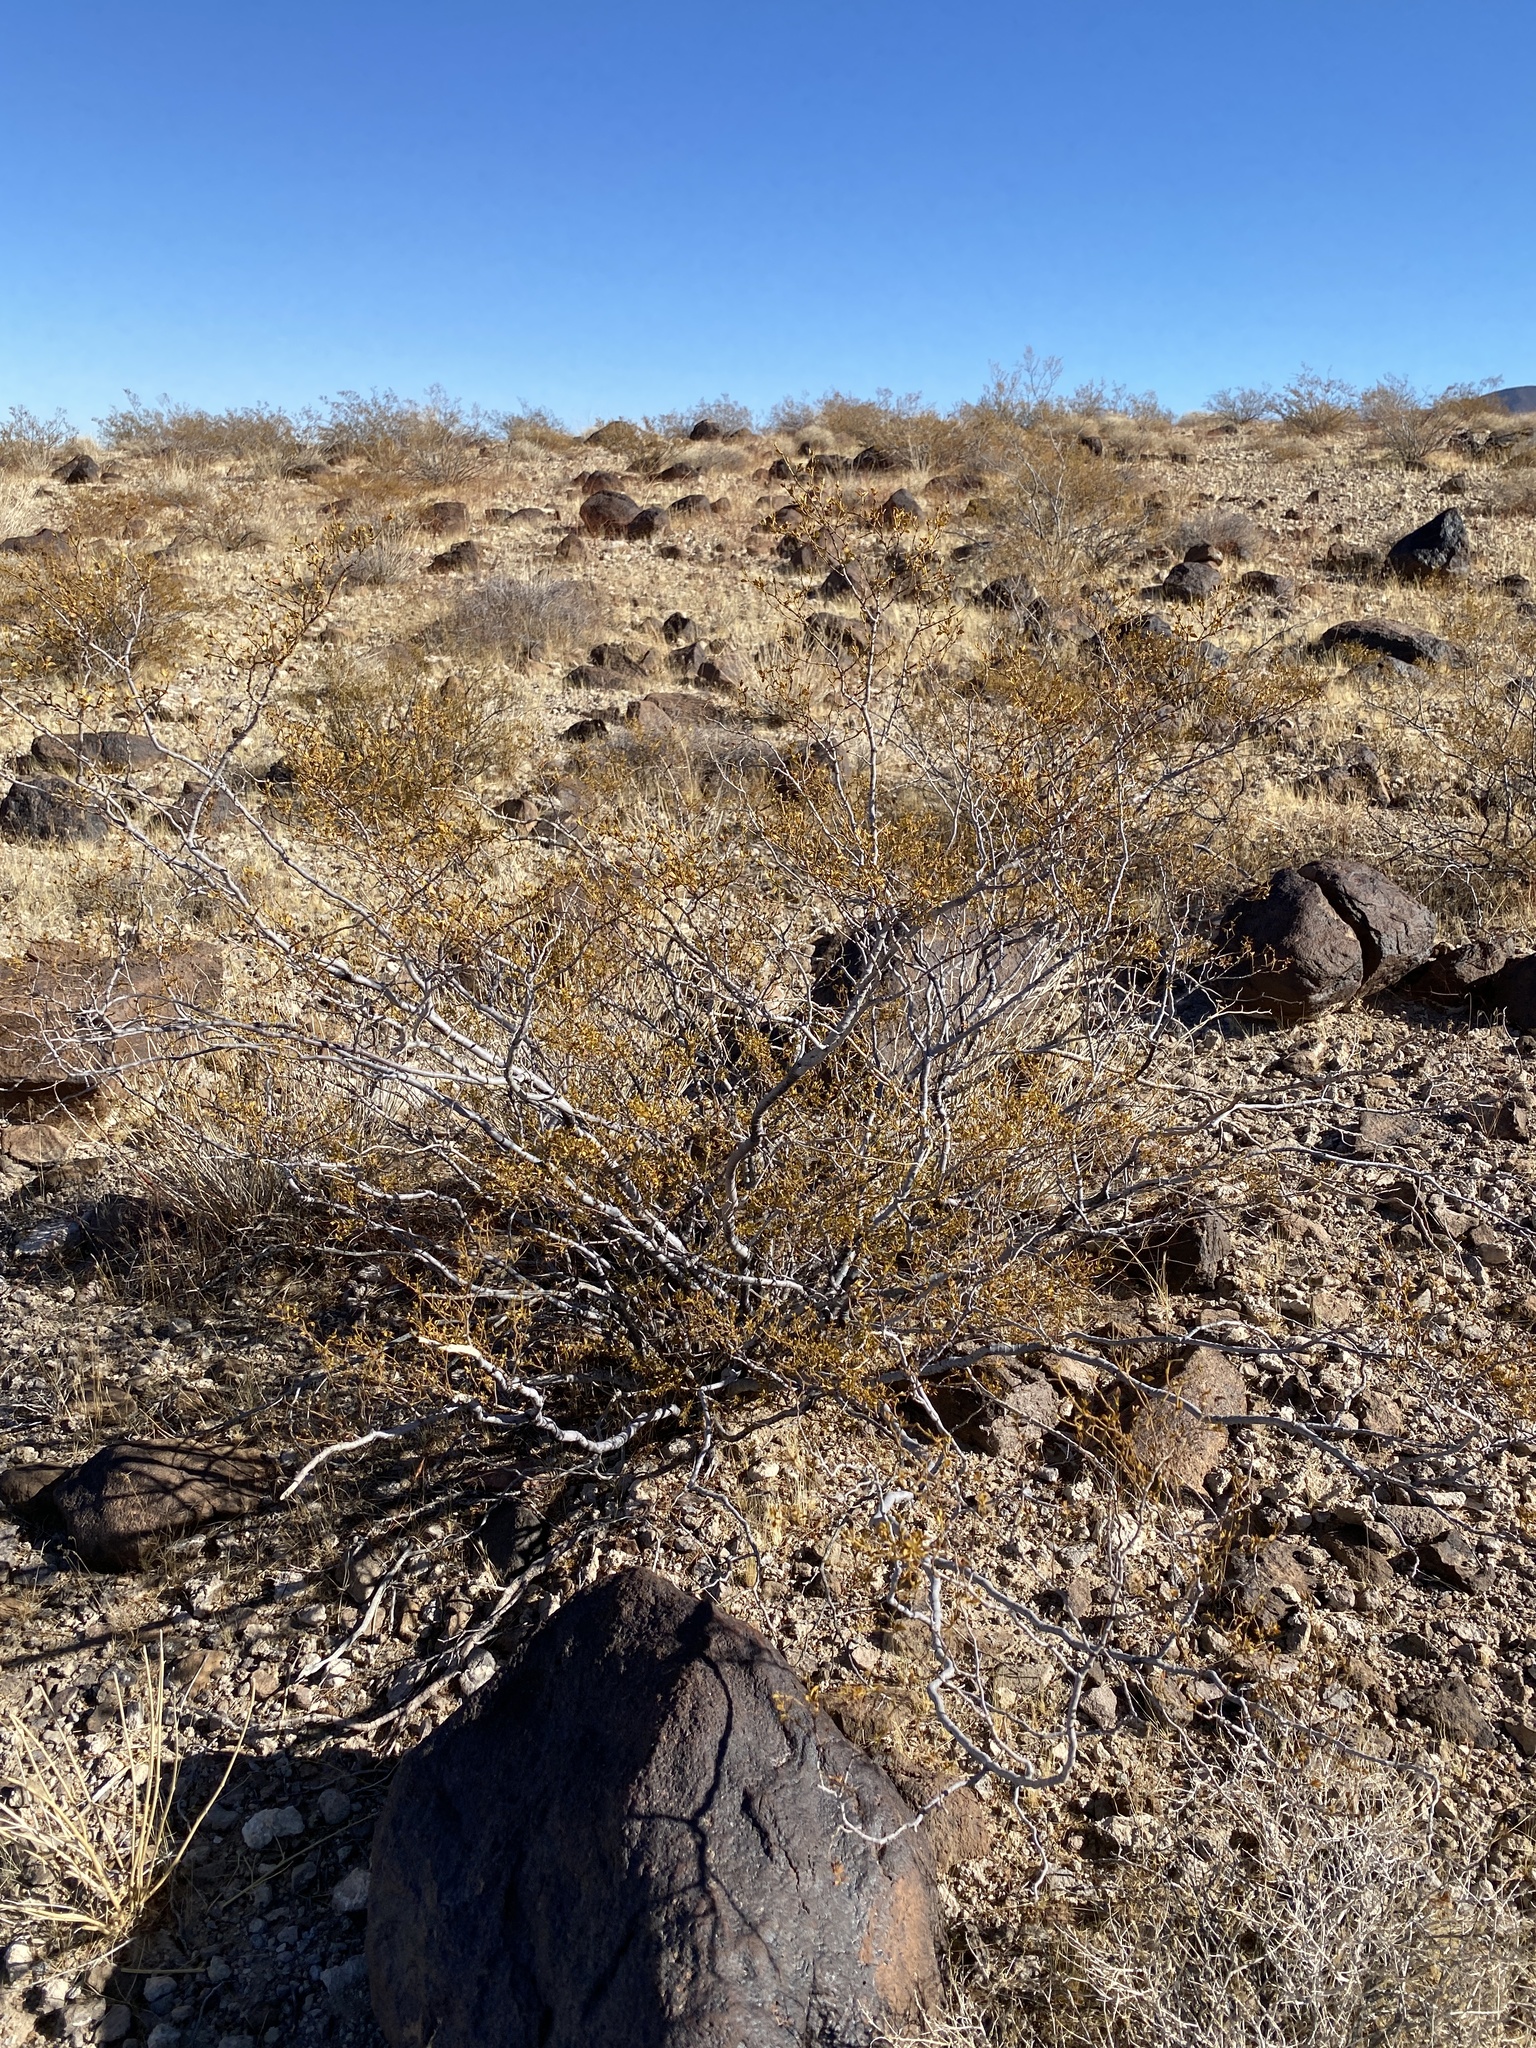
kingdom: Plantae
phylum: Tracheophyta
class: Magnoliopsida
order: Zygophyllales
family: Zygophyllaceae
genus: Larrea
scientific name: Larrea tridentata
